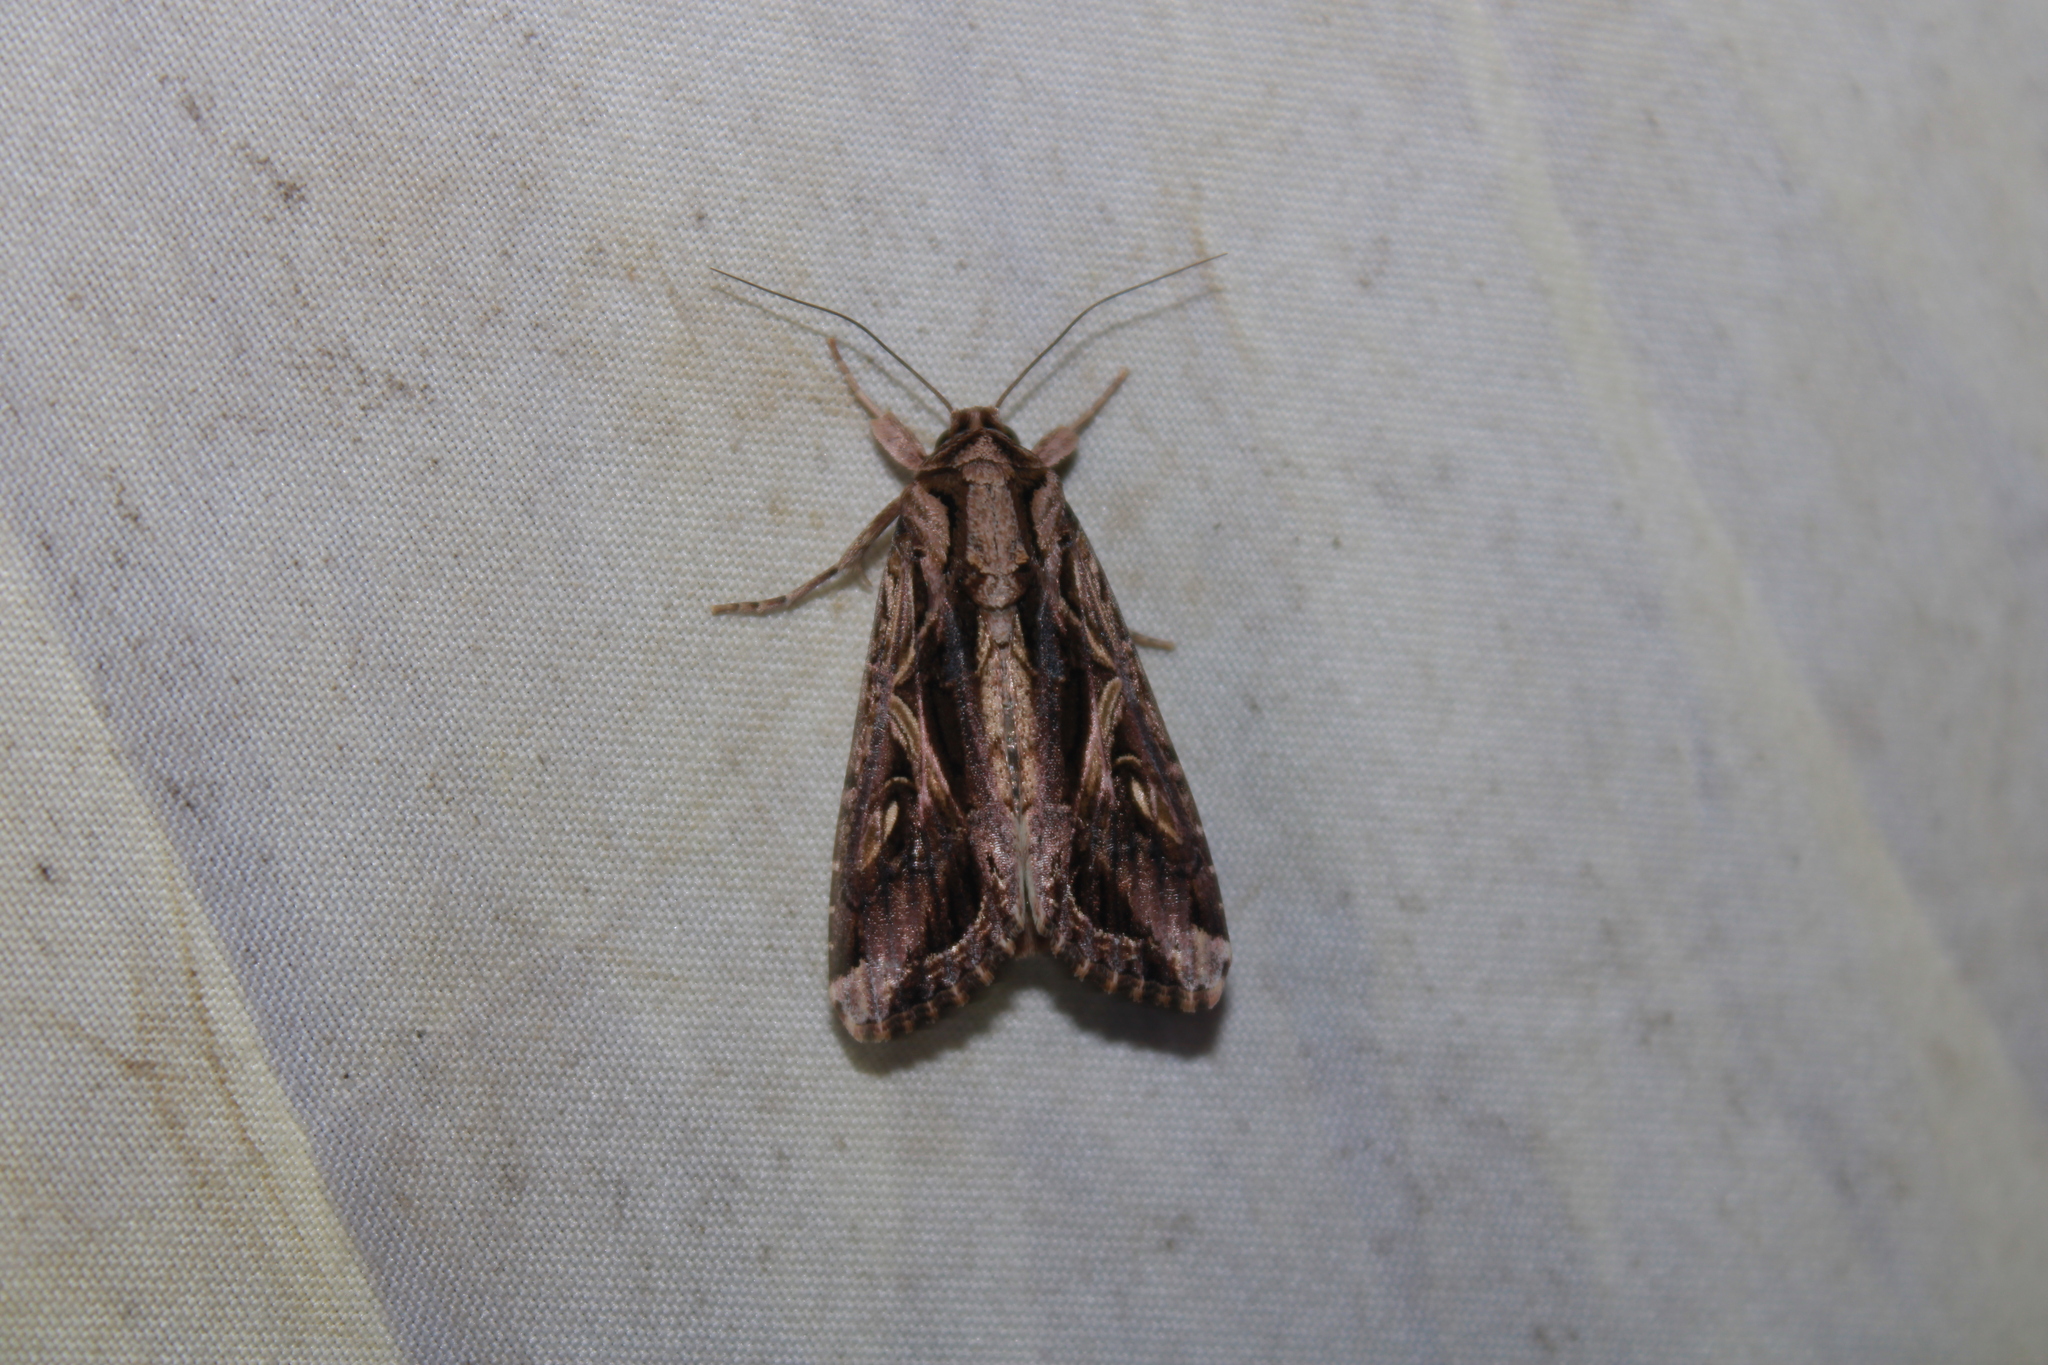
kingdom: Animalia
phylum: Arthropoda
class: Insecta
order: Lepidoptera
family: Noctuidae
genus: Spodoptera
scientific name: Spodoptera dolichos
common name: Sweetpotato armyworm
